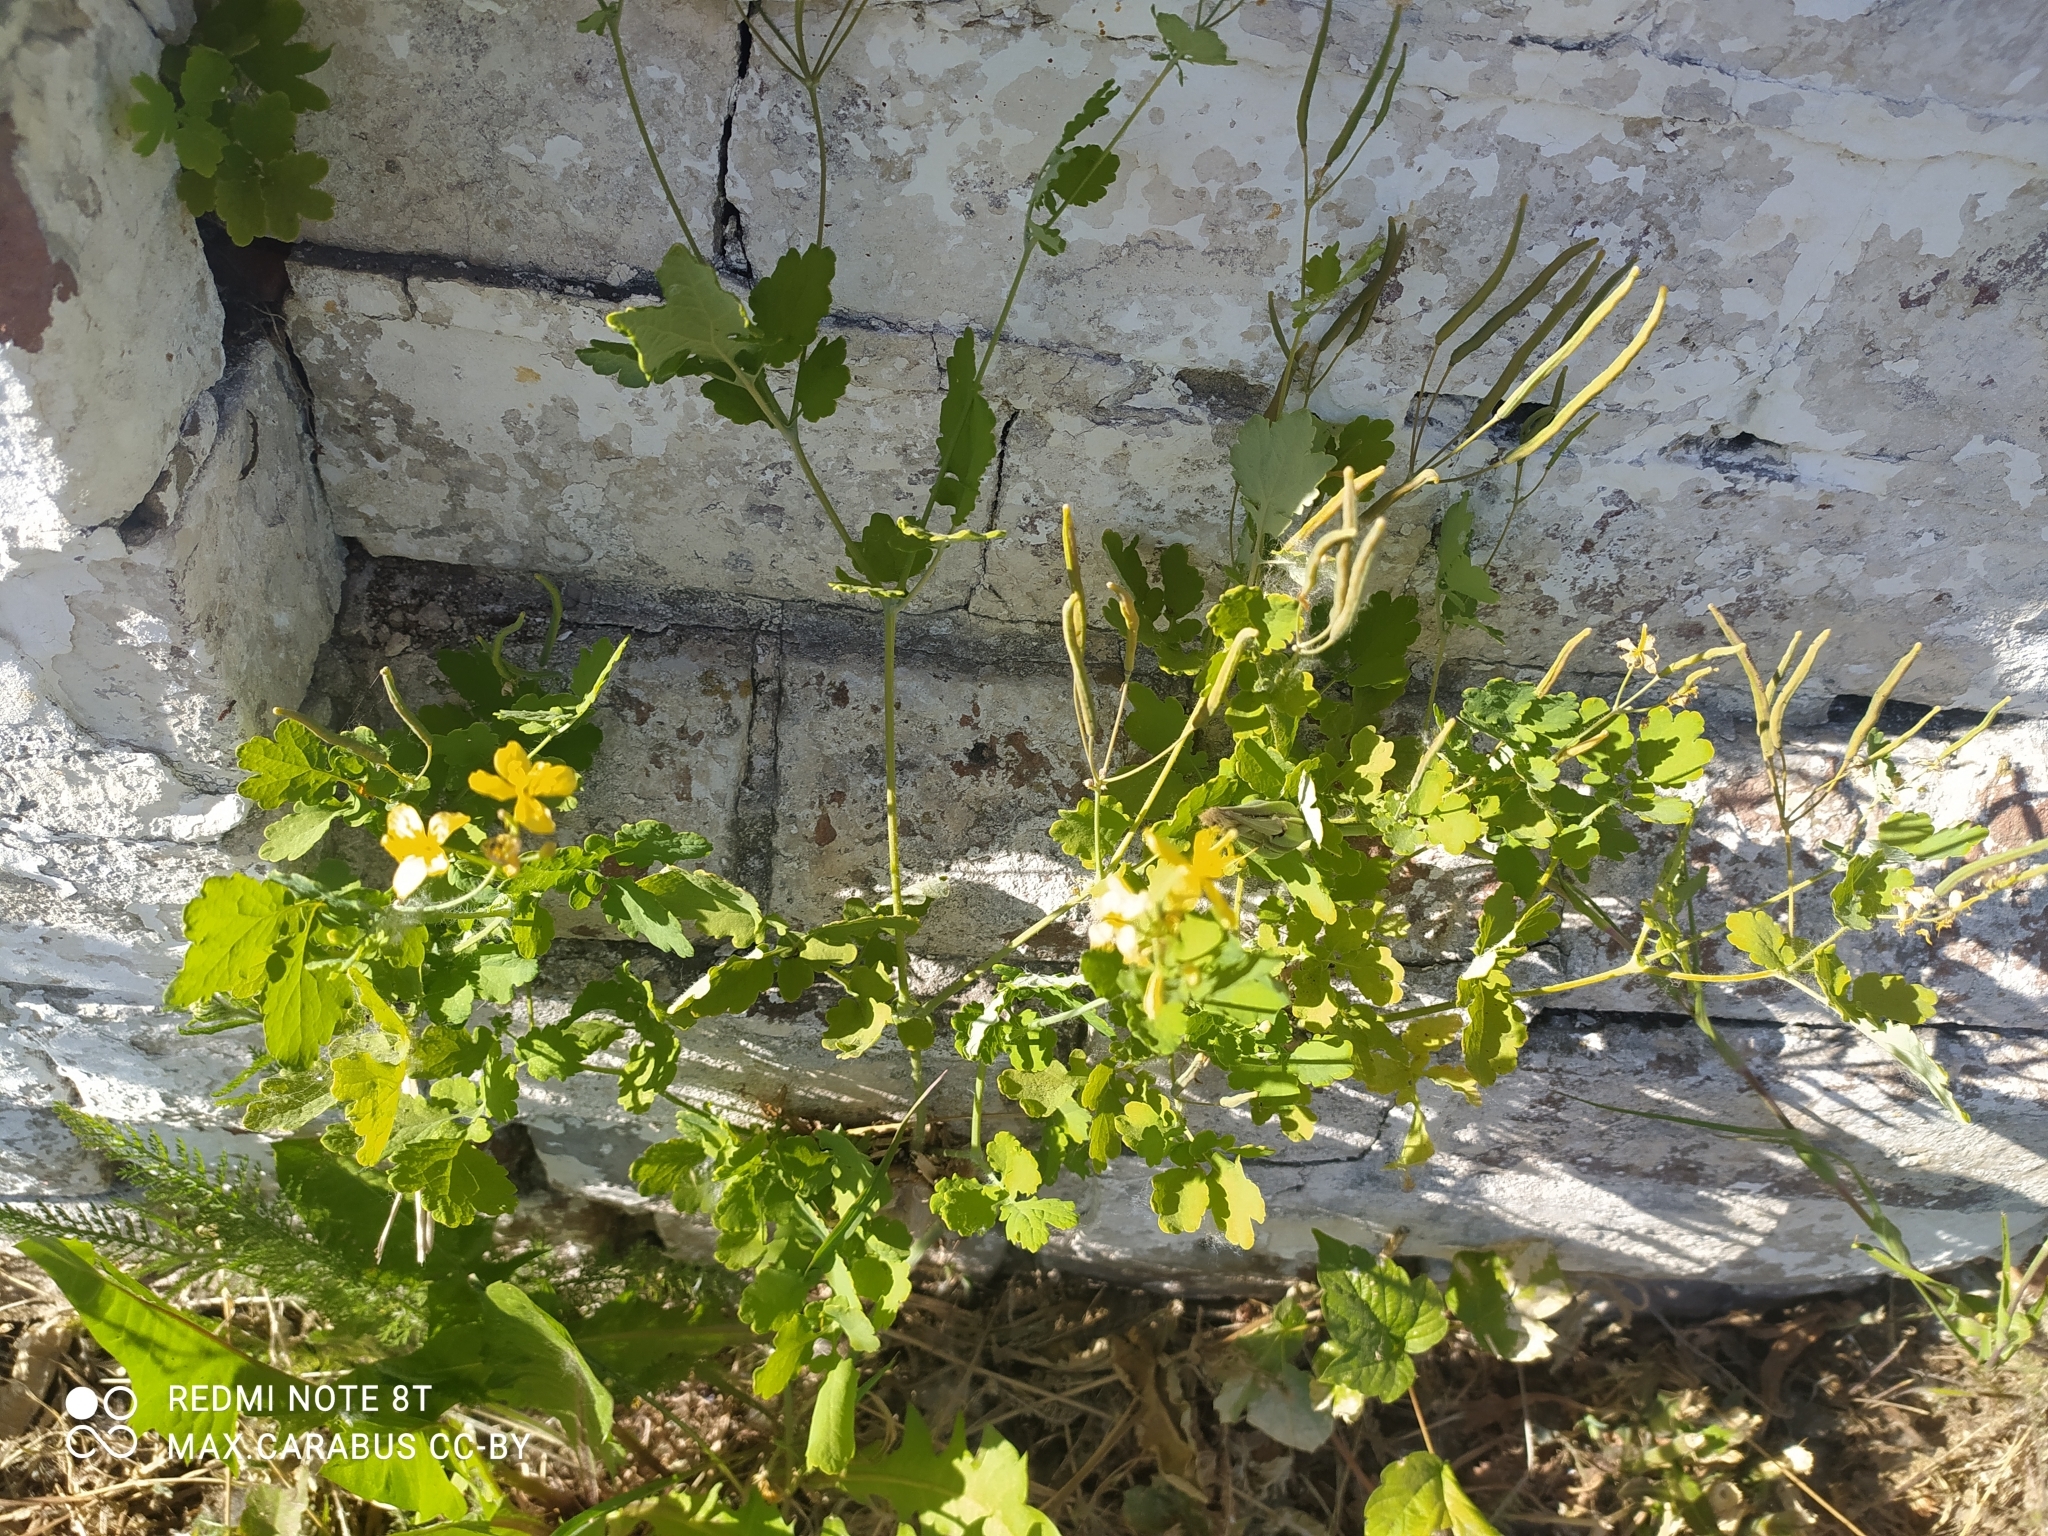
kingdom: Plantae
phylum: Tracheophyta
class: Magnoliopsida
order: Ranunculales
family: Papaveraceae
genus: Chelidonium
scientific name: Chelidonium majus
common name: Greater celandine
